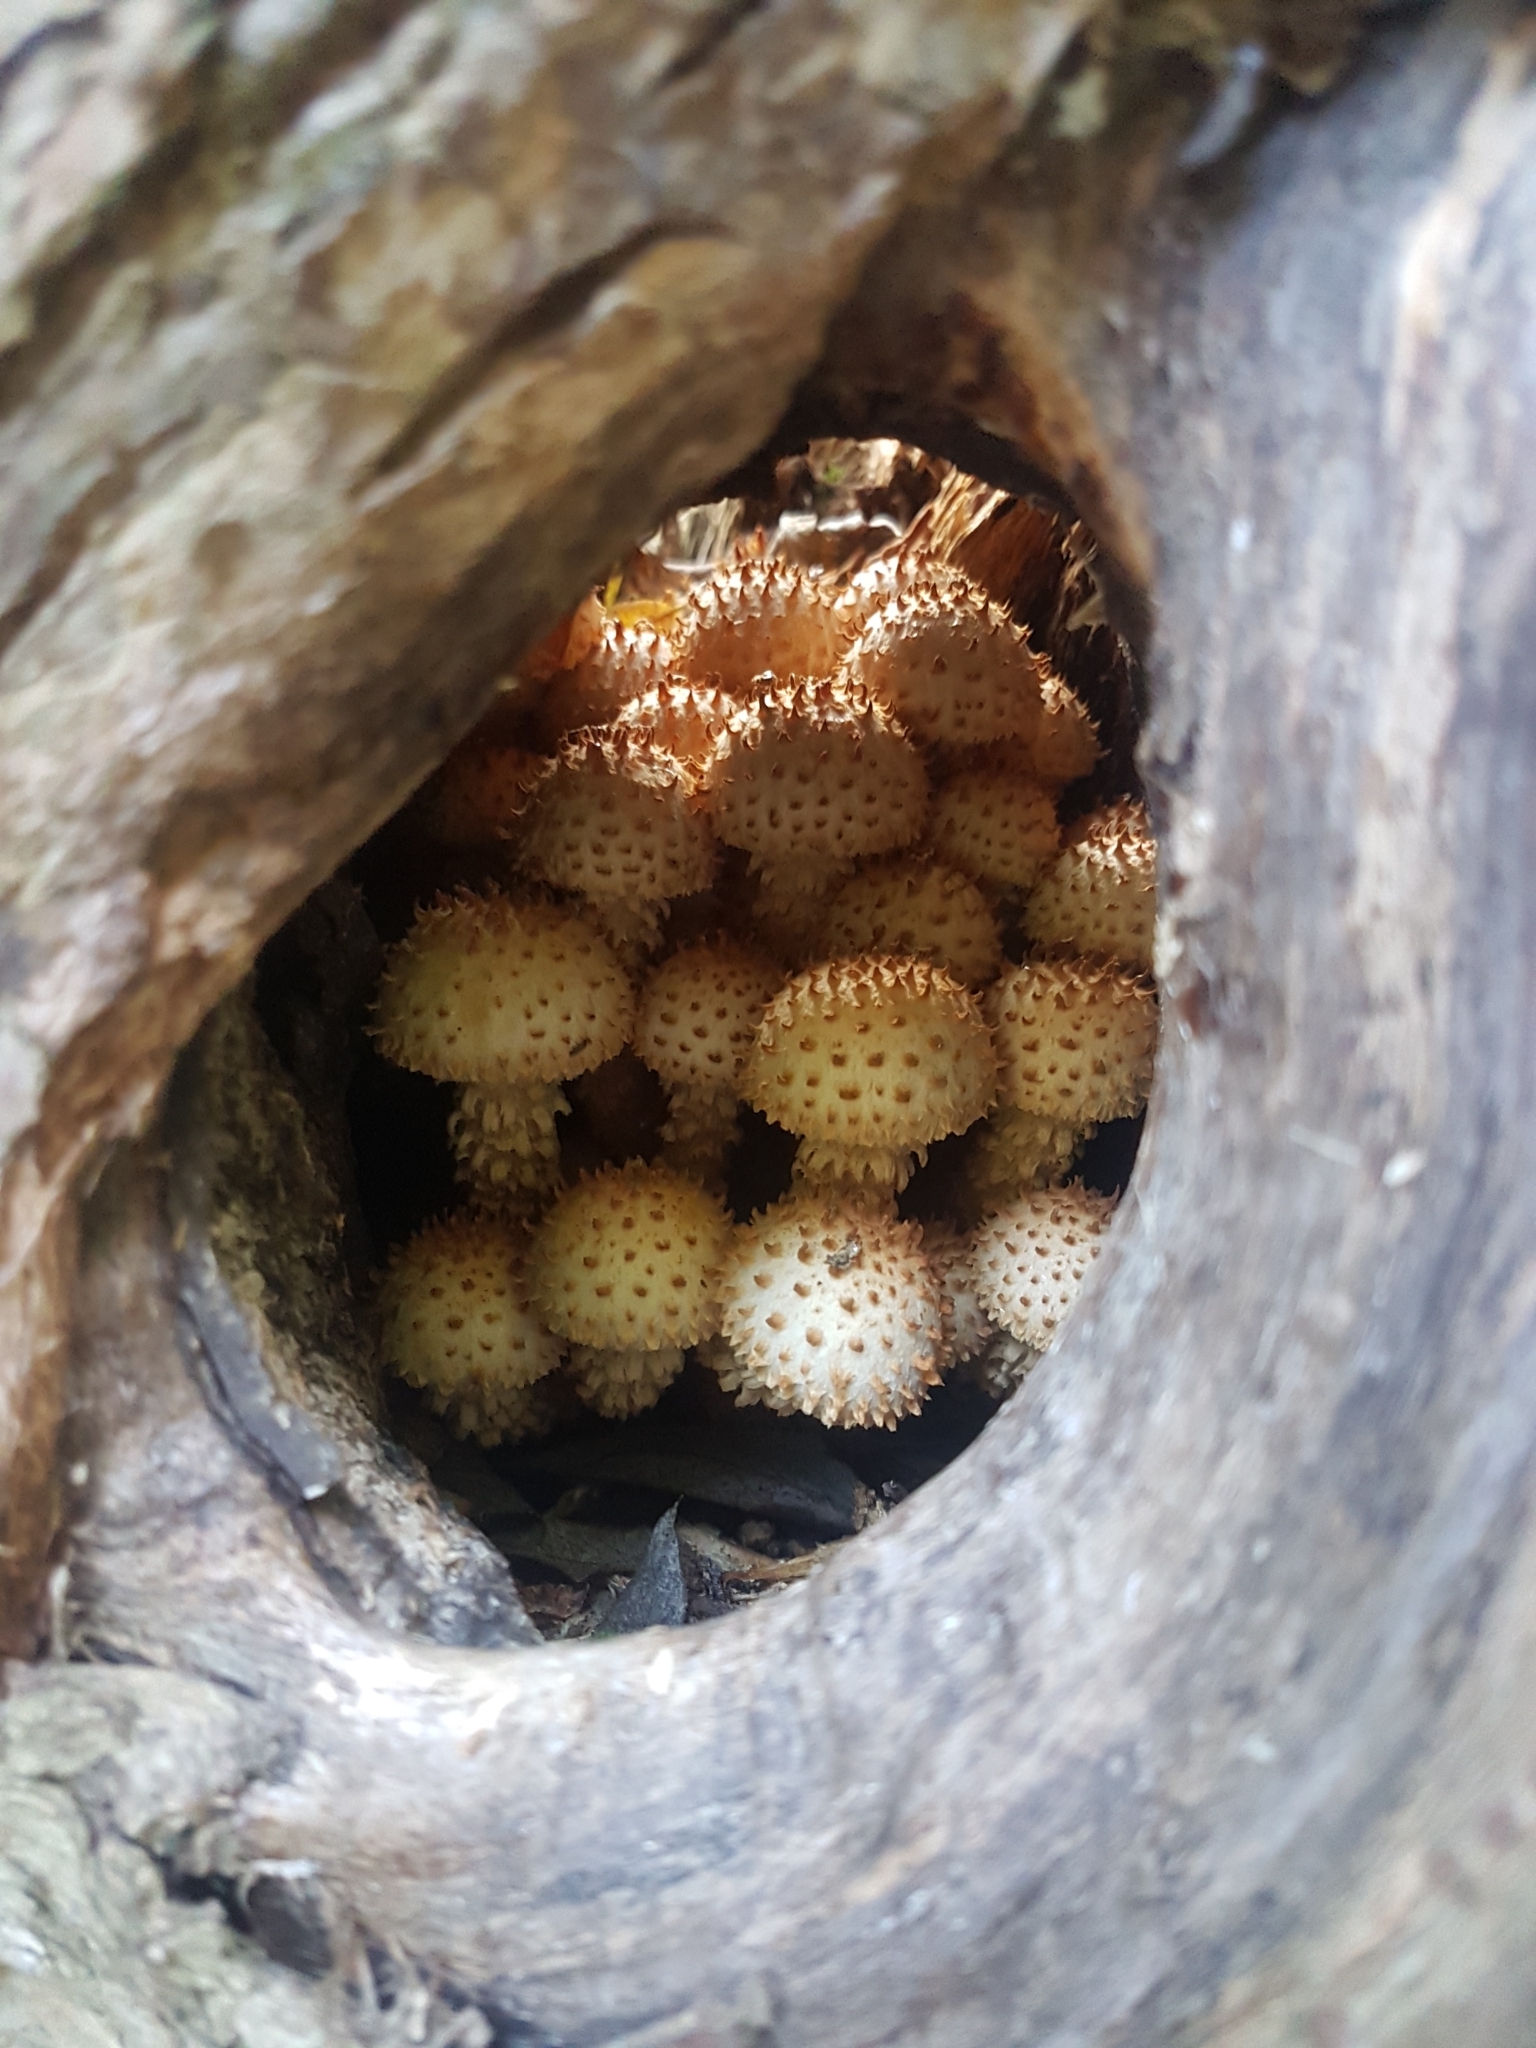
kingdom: Fungi
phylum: Basidiomycota
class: Agaricomycetes
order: Agaricales
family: Strophariaceae
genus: Pholiota
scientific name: Pholiota squarrosoides
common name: Sharp-scaly pholiota
